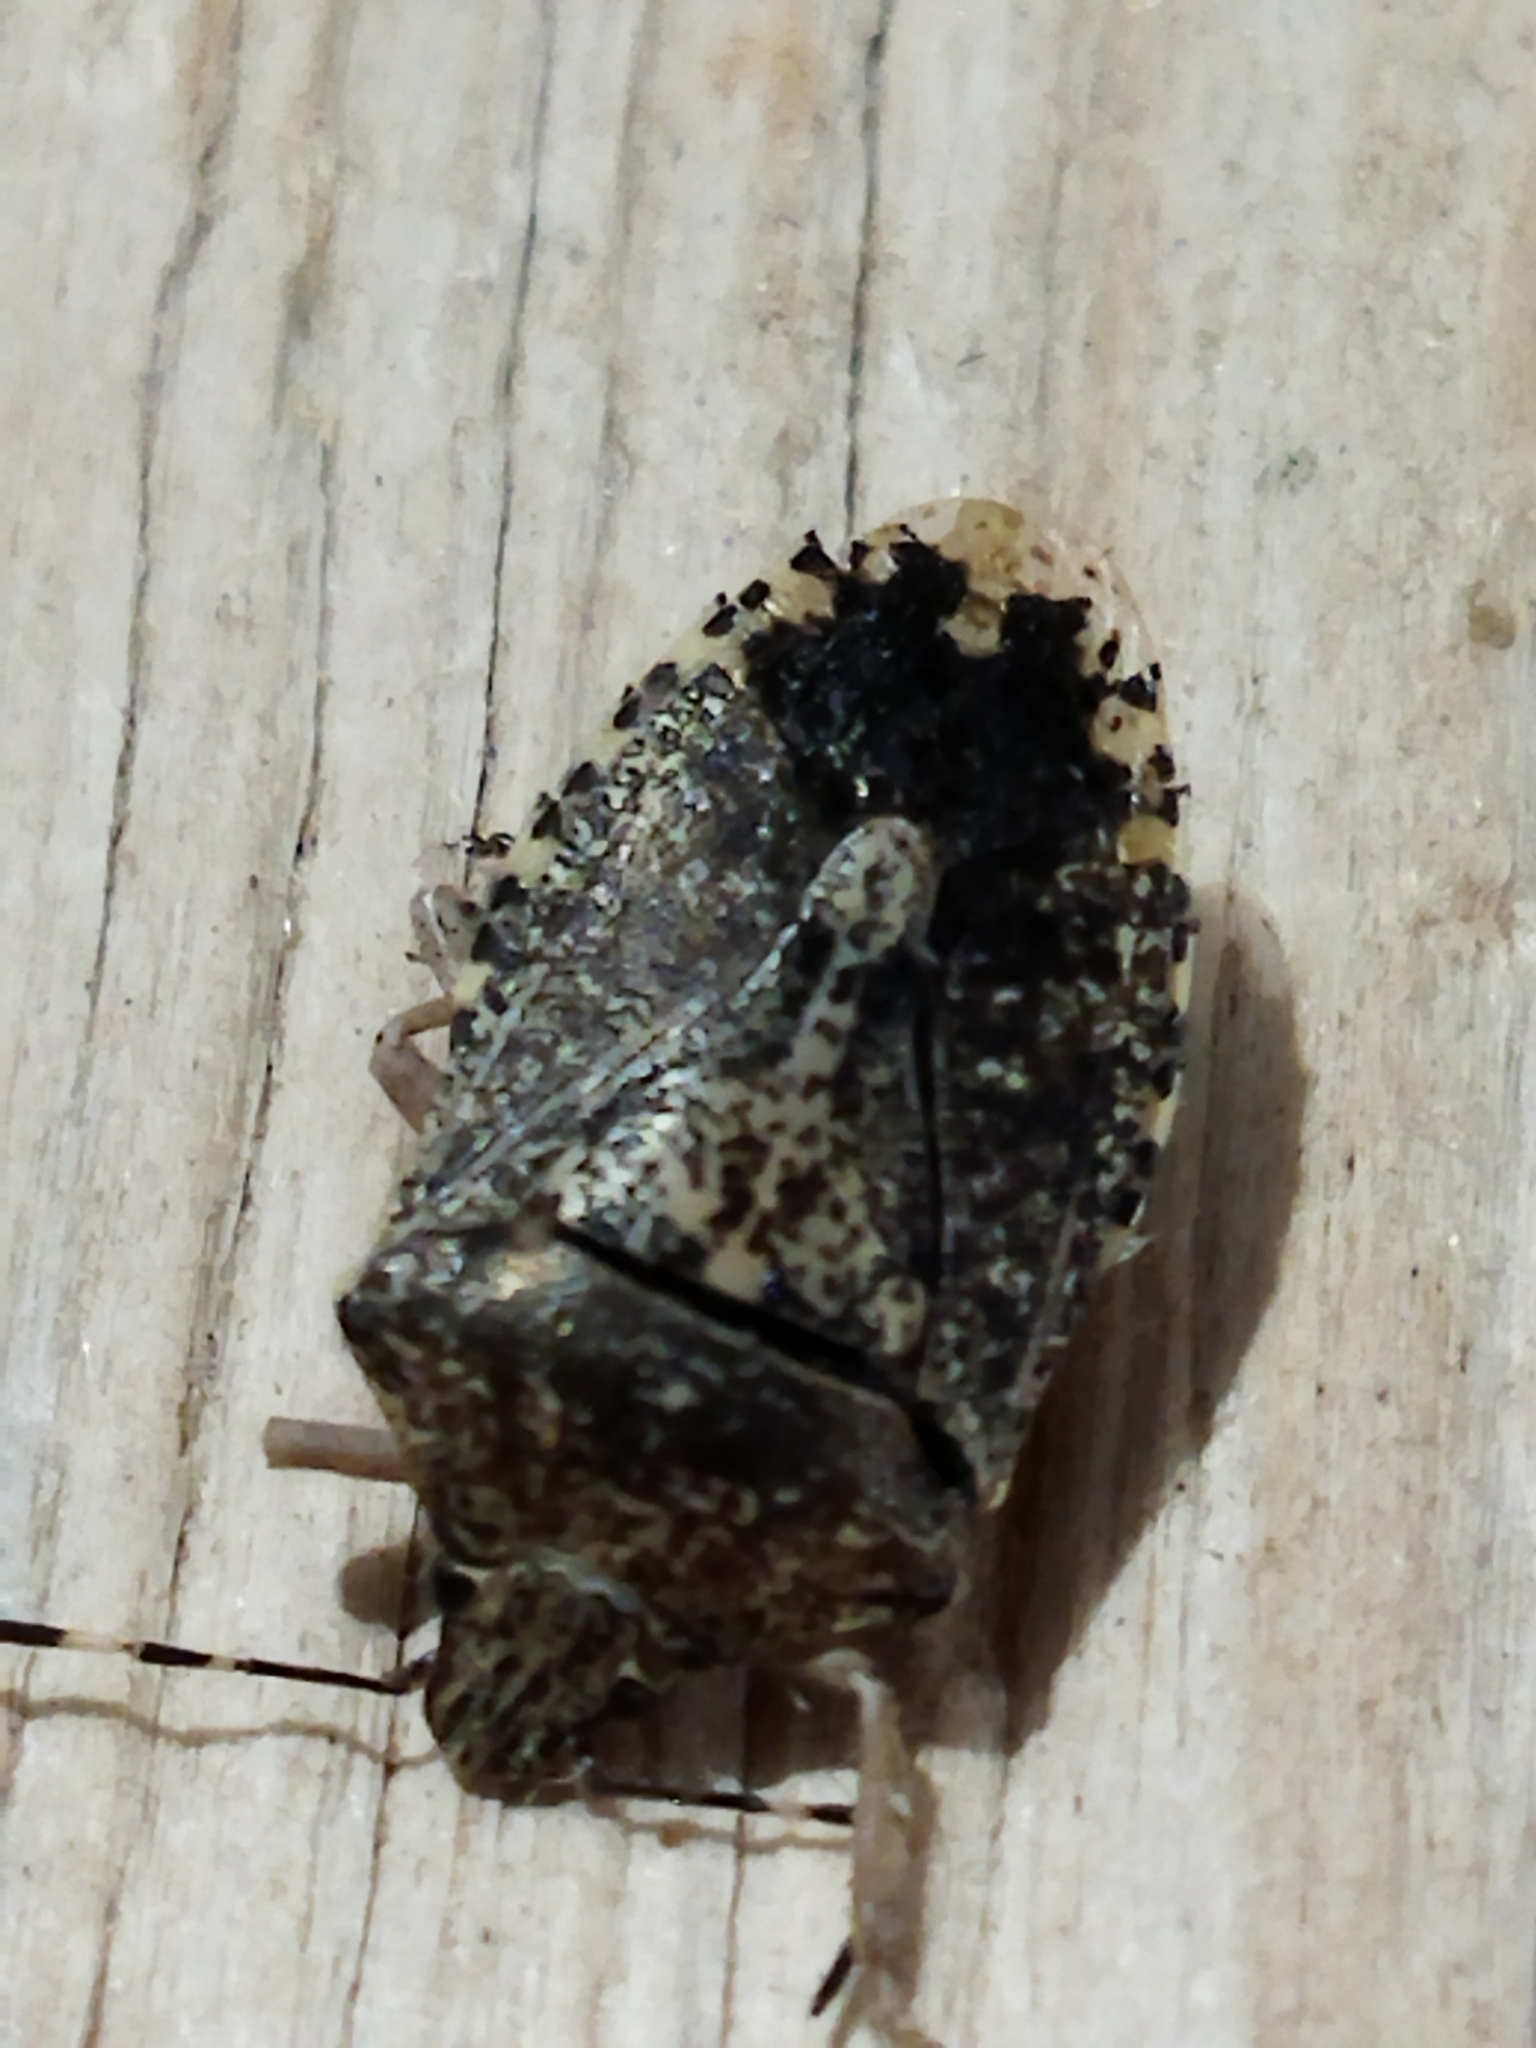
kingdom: Animalia
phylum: Arthropoda
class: Insecta
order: Hemiptera
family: Pentatomidae
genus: Rhaphigaster
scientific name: Rhaphigaster nebulosa
